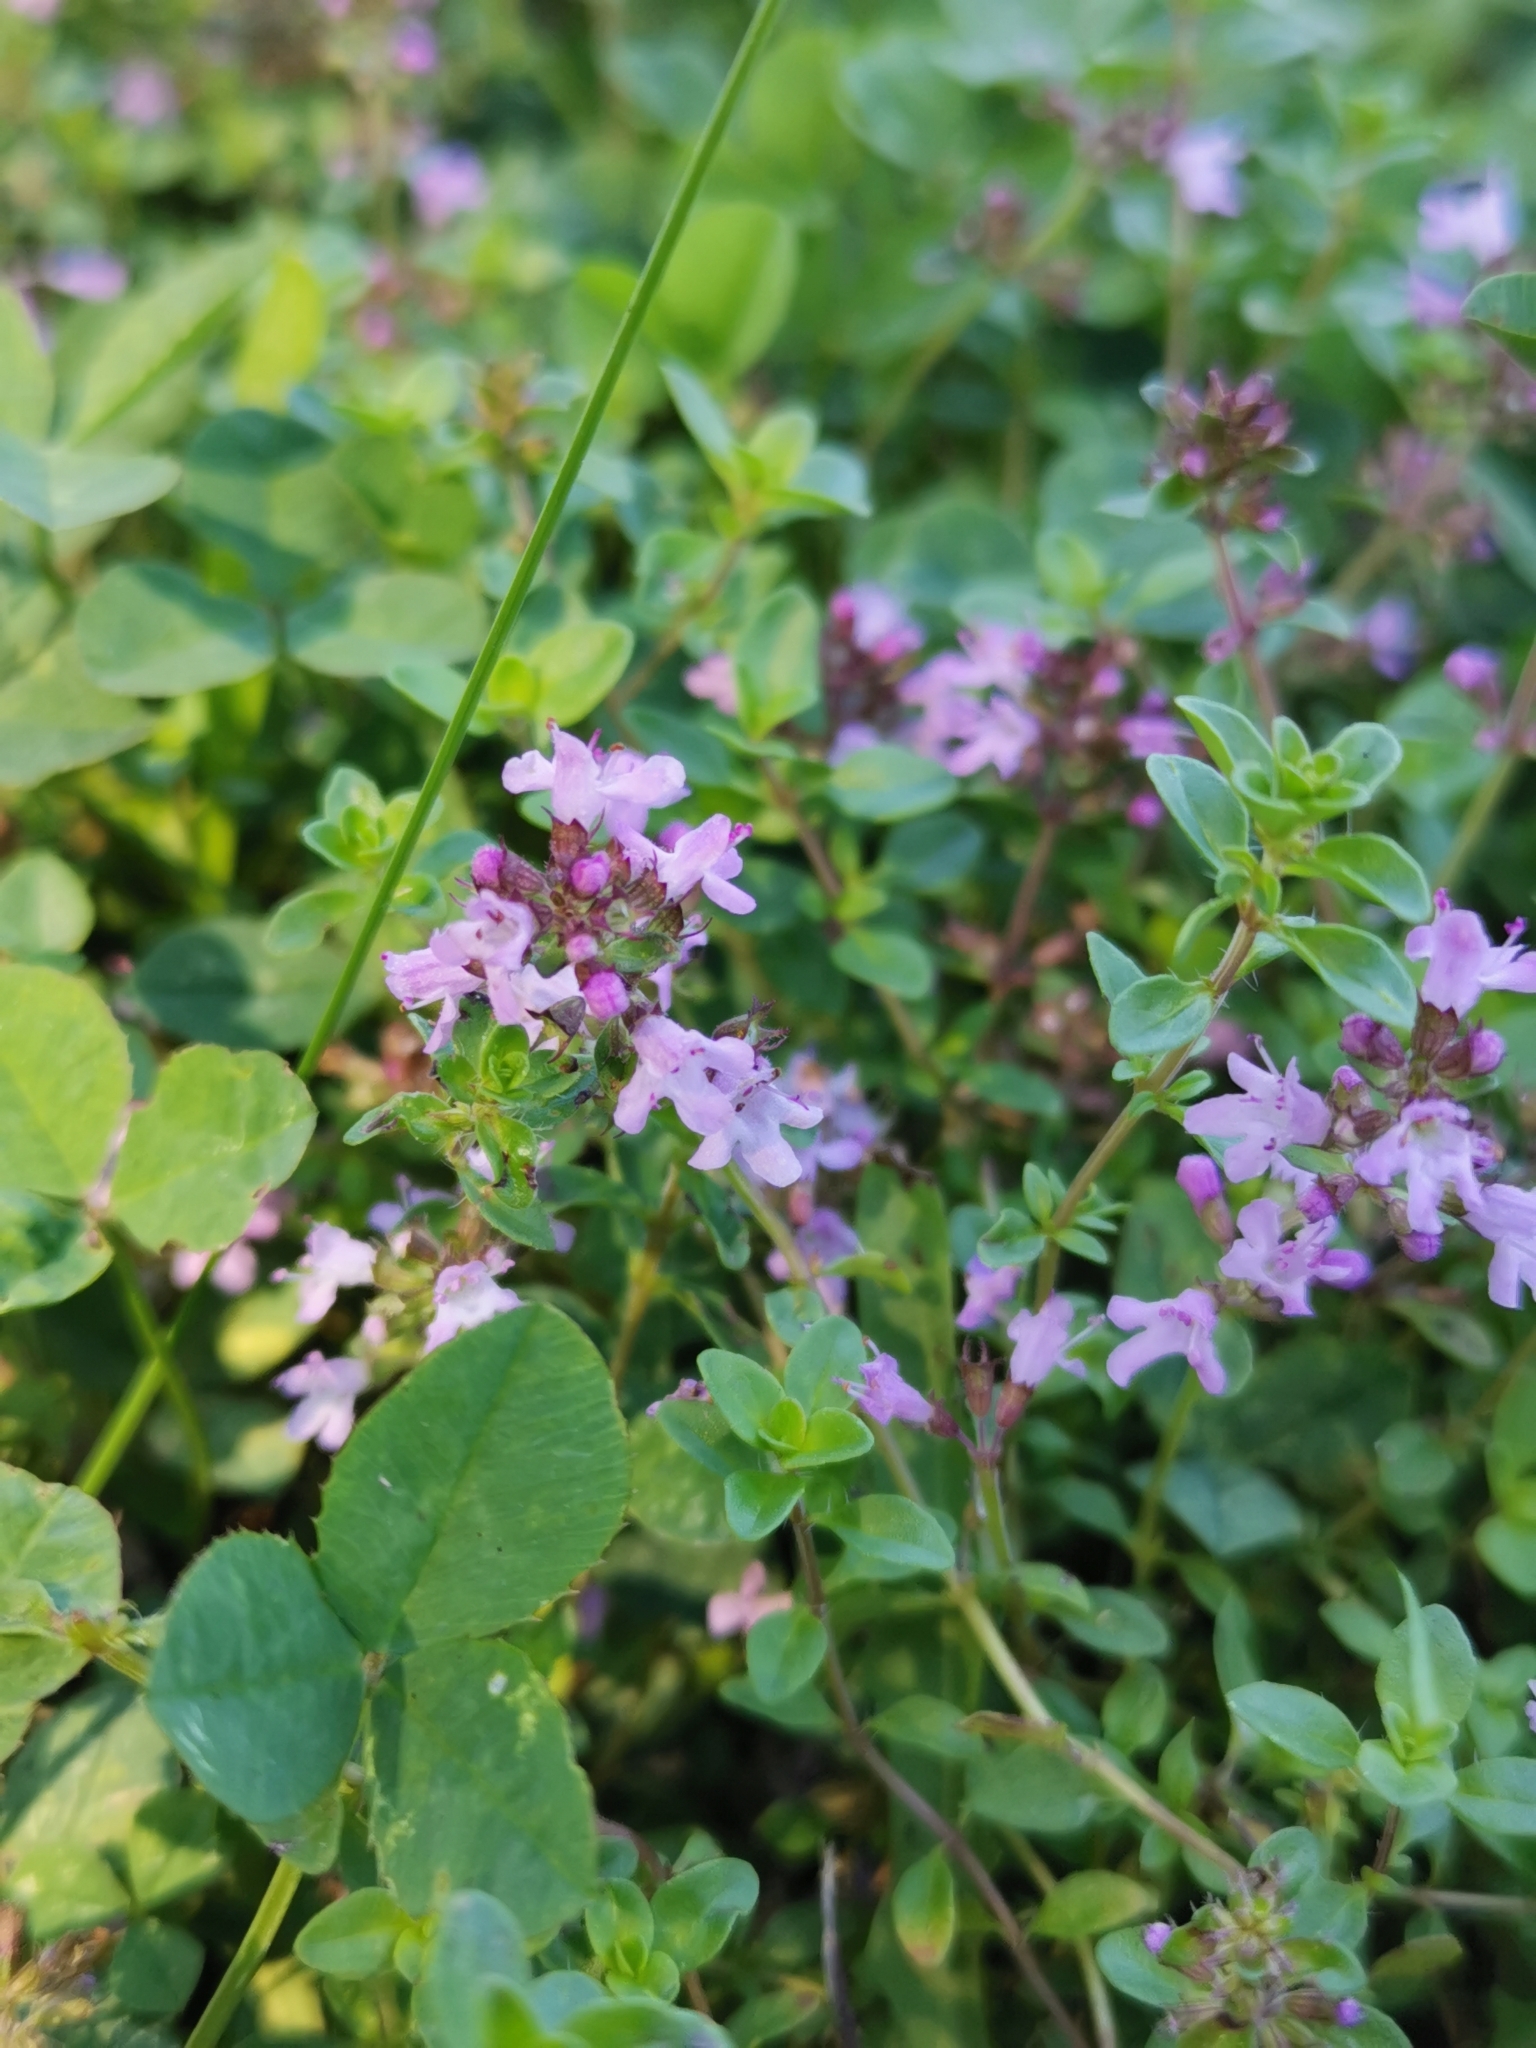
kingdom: Plantae
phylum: Tracheophyta
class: Magnoliopsida
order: Lamiales
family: Lamiaceae
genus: Thymus
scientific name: Thymus pulegioides
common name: Large thyme
